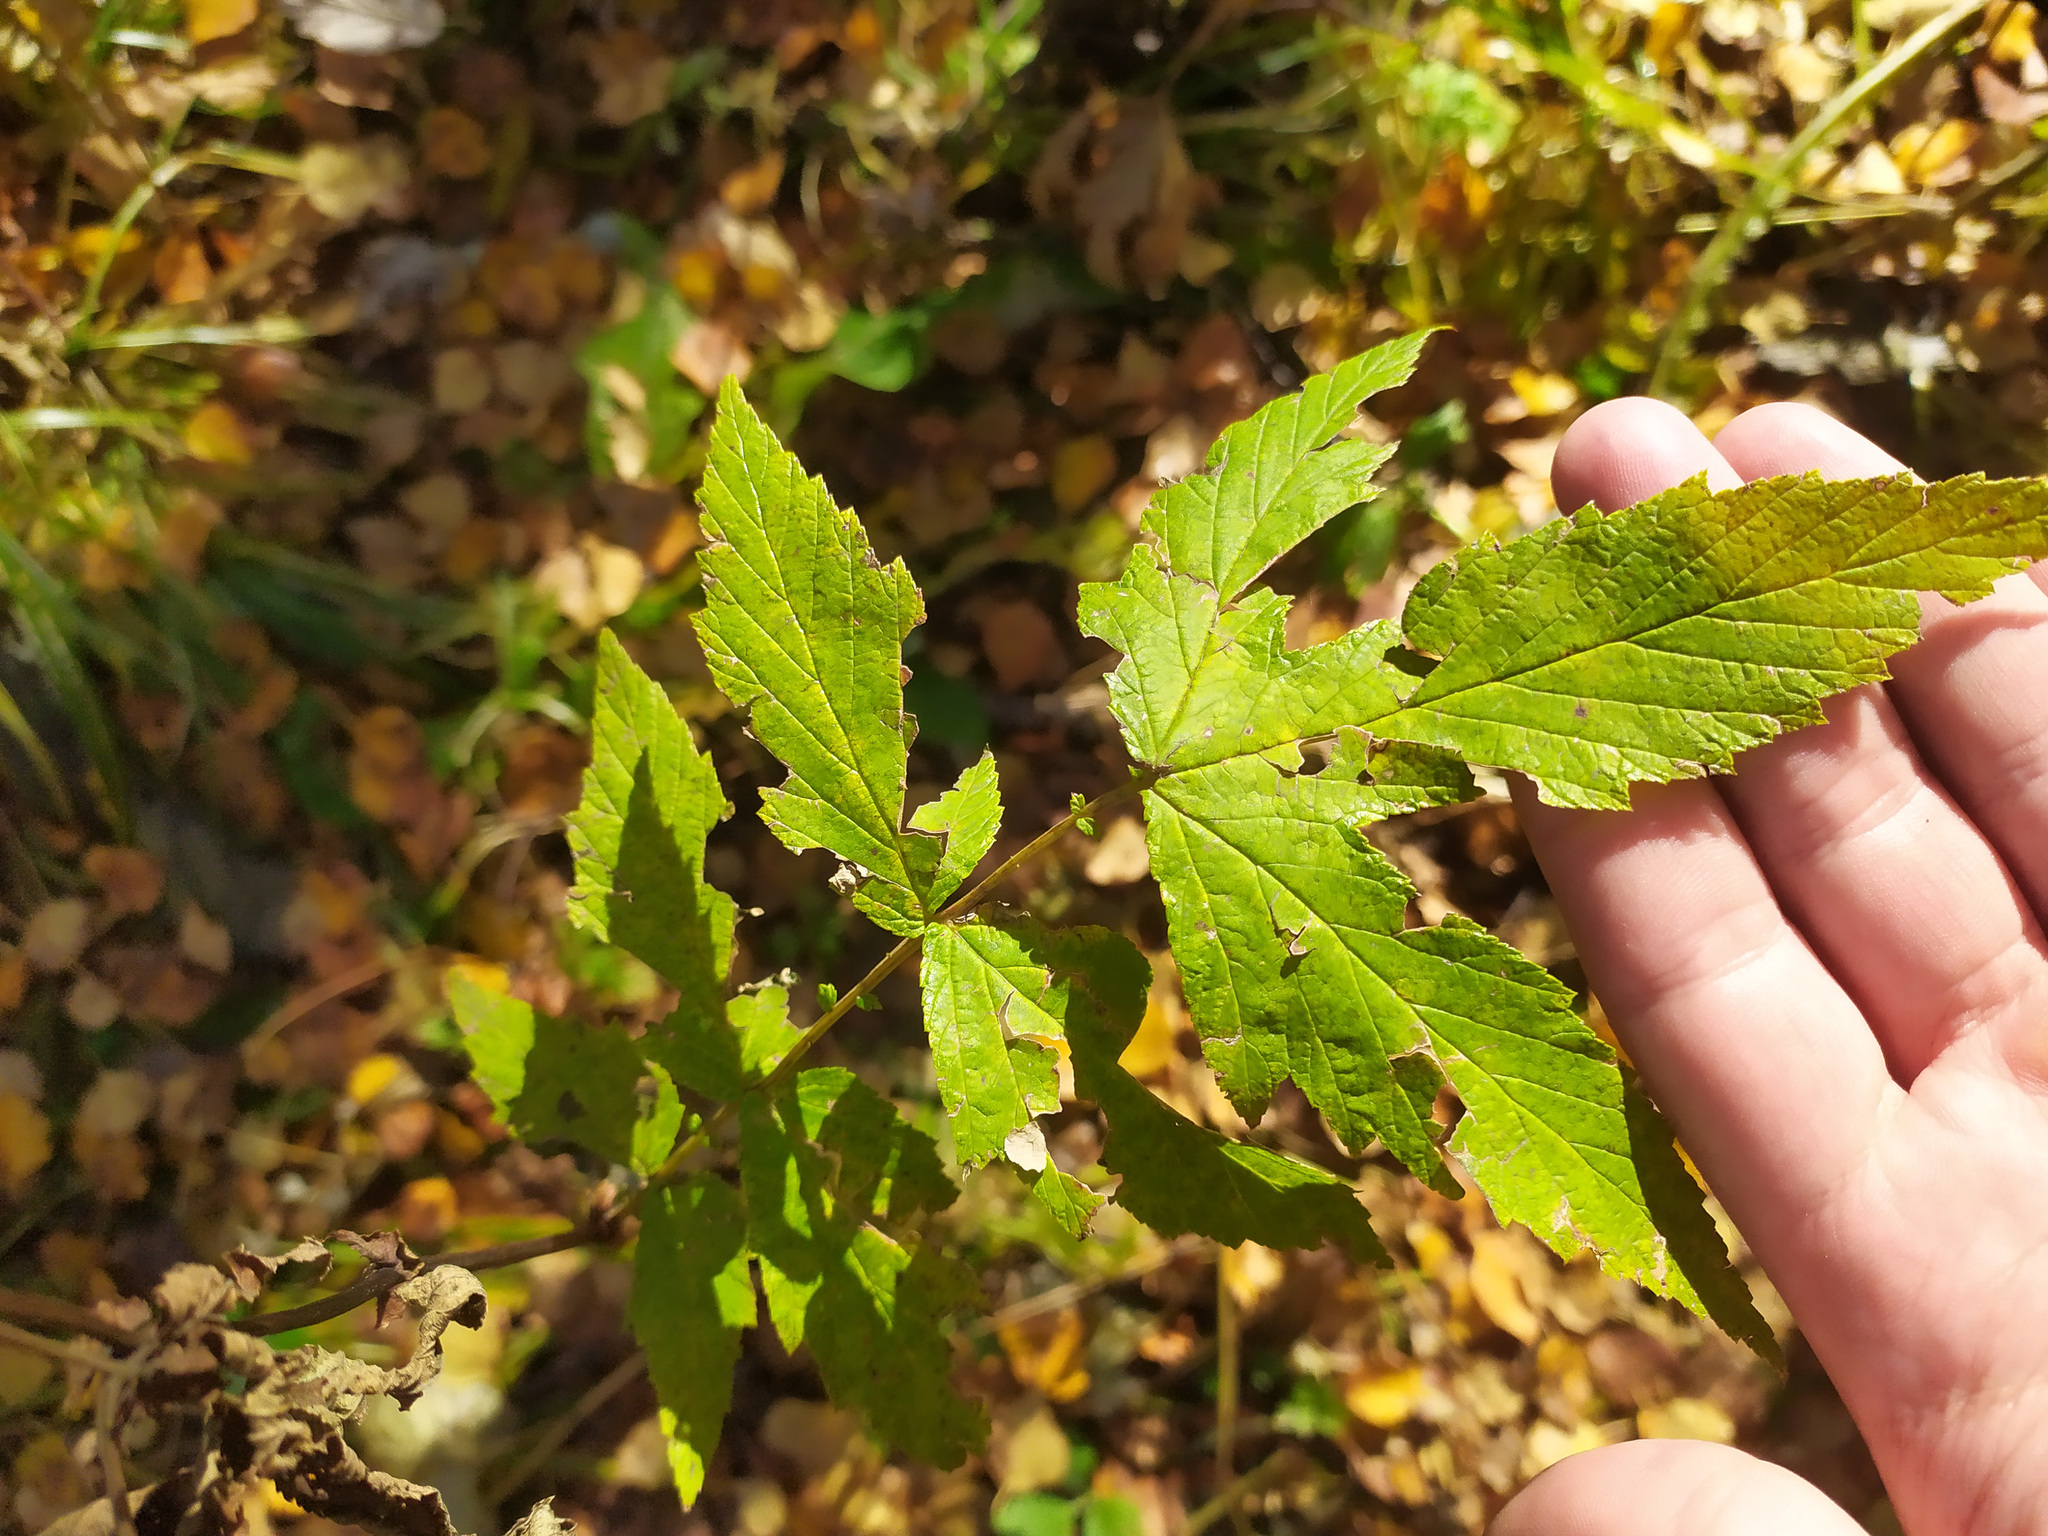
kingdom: Plantae
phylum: Tracheophyta
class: Magnoliopsida
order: Rosales
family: Rosaceae
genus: Filipendula
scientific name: Filipendula ulmaria
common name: Meadowsweet
